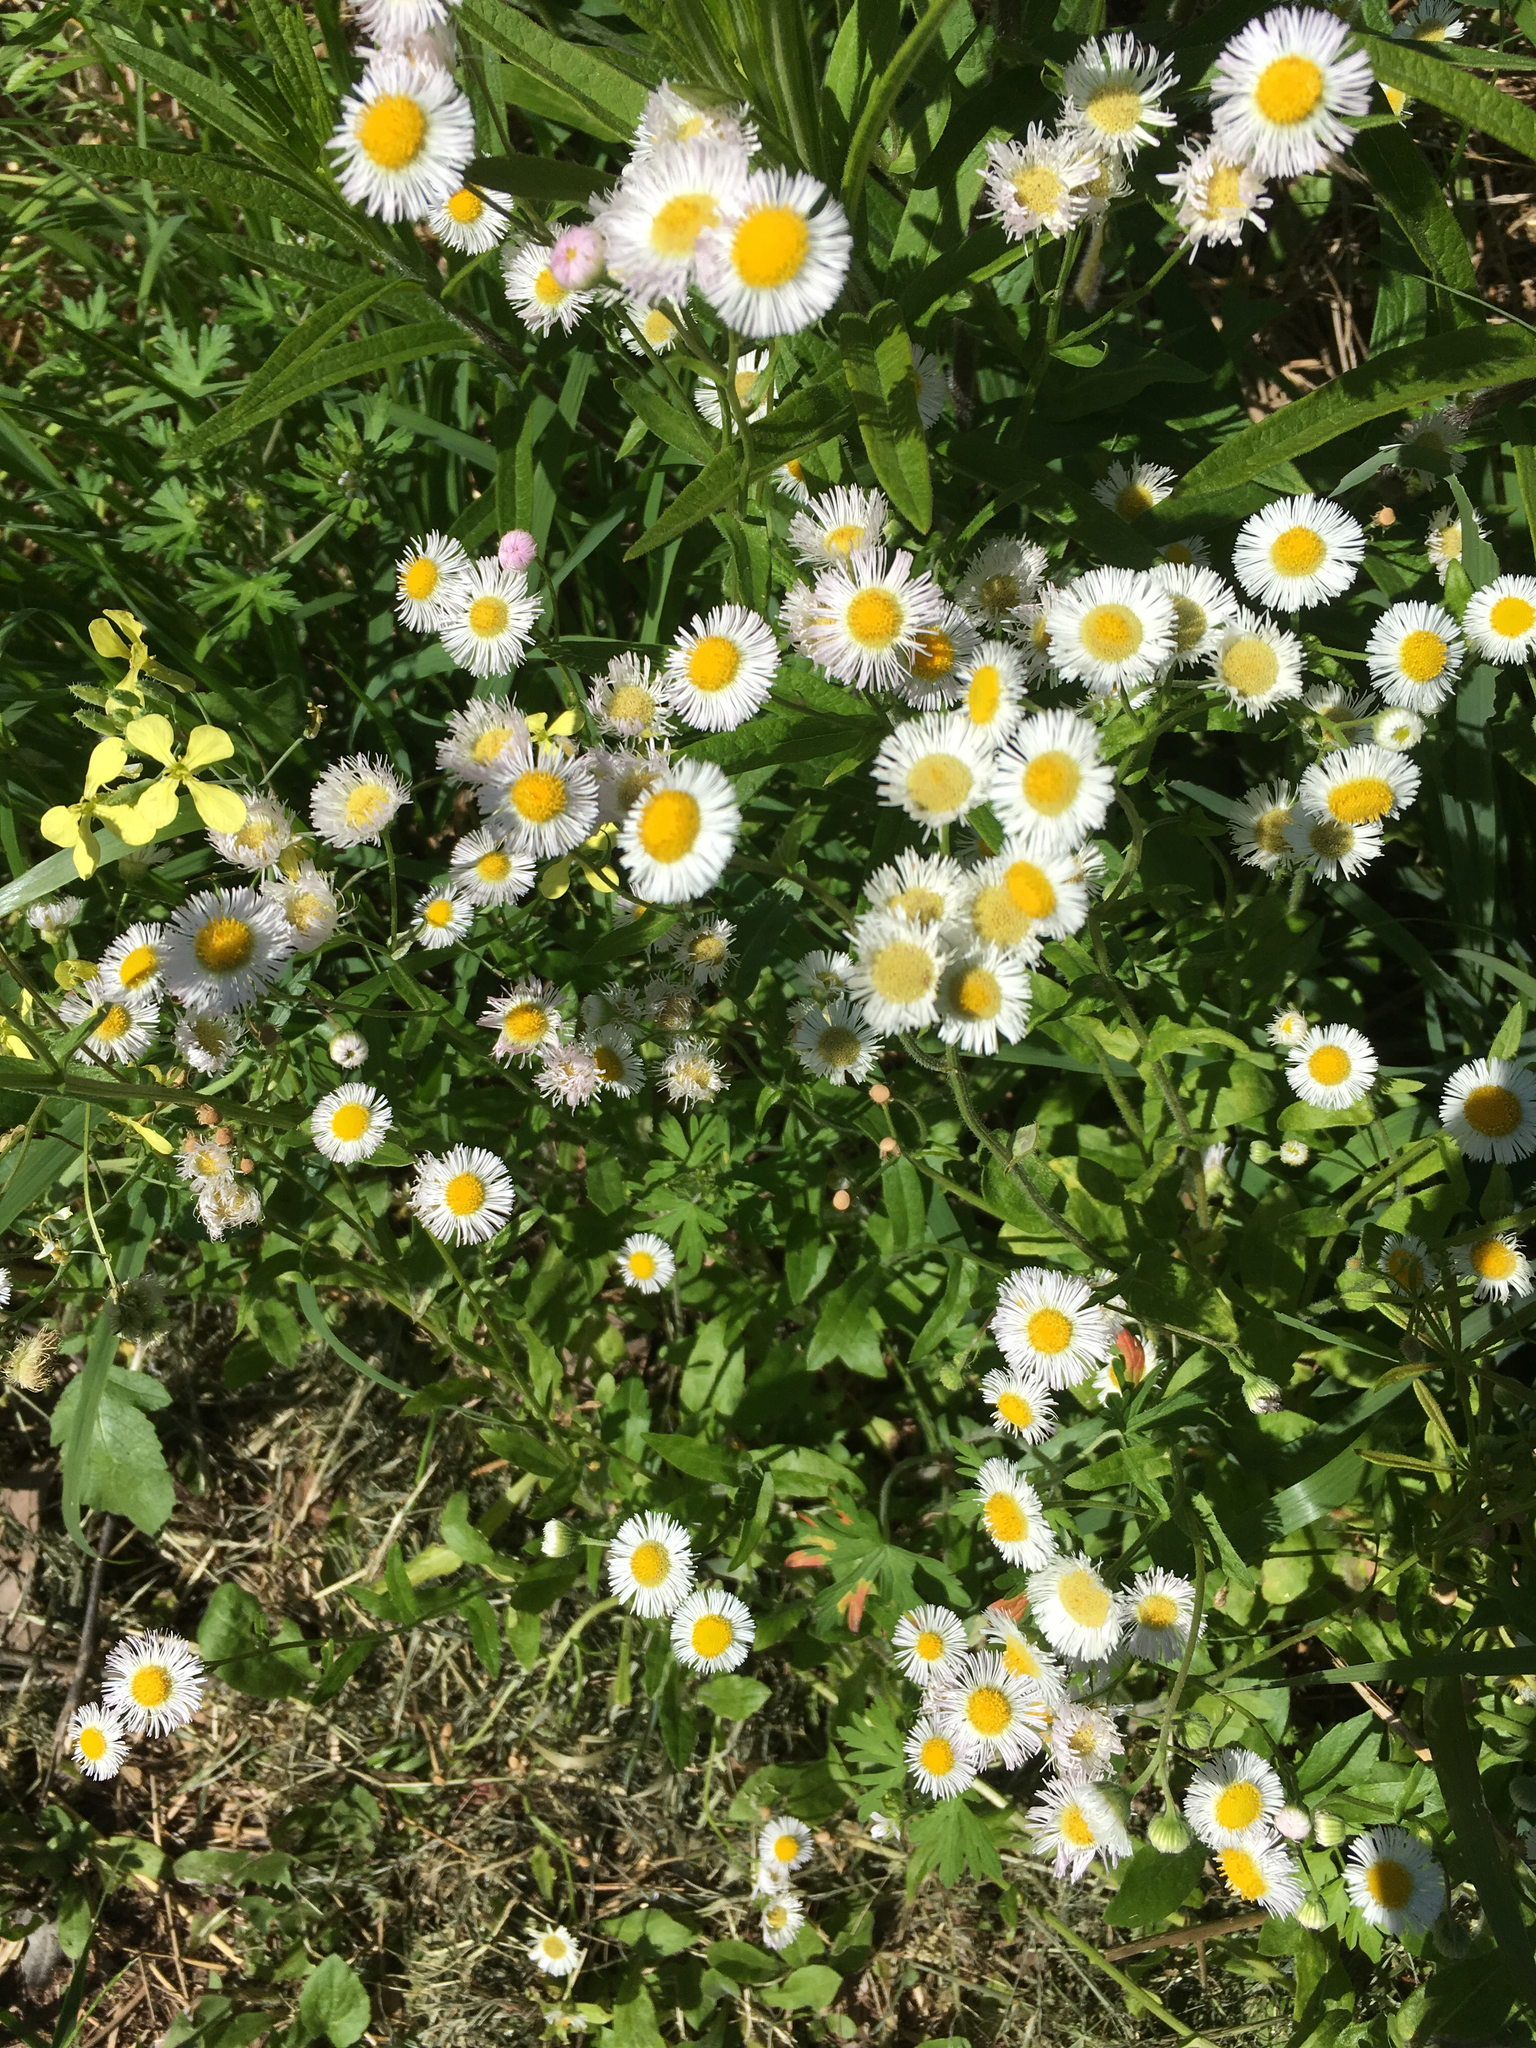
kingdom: Plantae
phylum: Tracheophyta
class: Magnoliopsida
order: Asterales
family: Asteraceae
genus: Erigeron
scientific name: Erigeron philadelphicus
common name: Robin's-plantain
